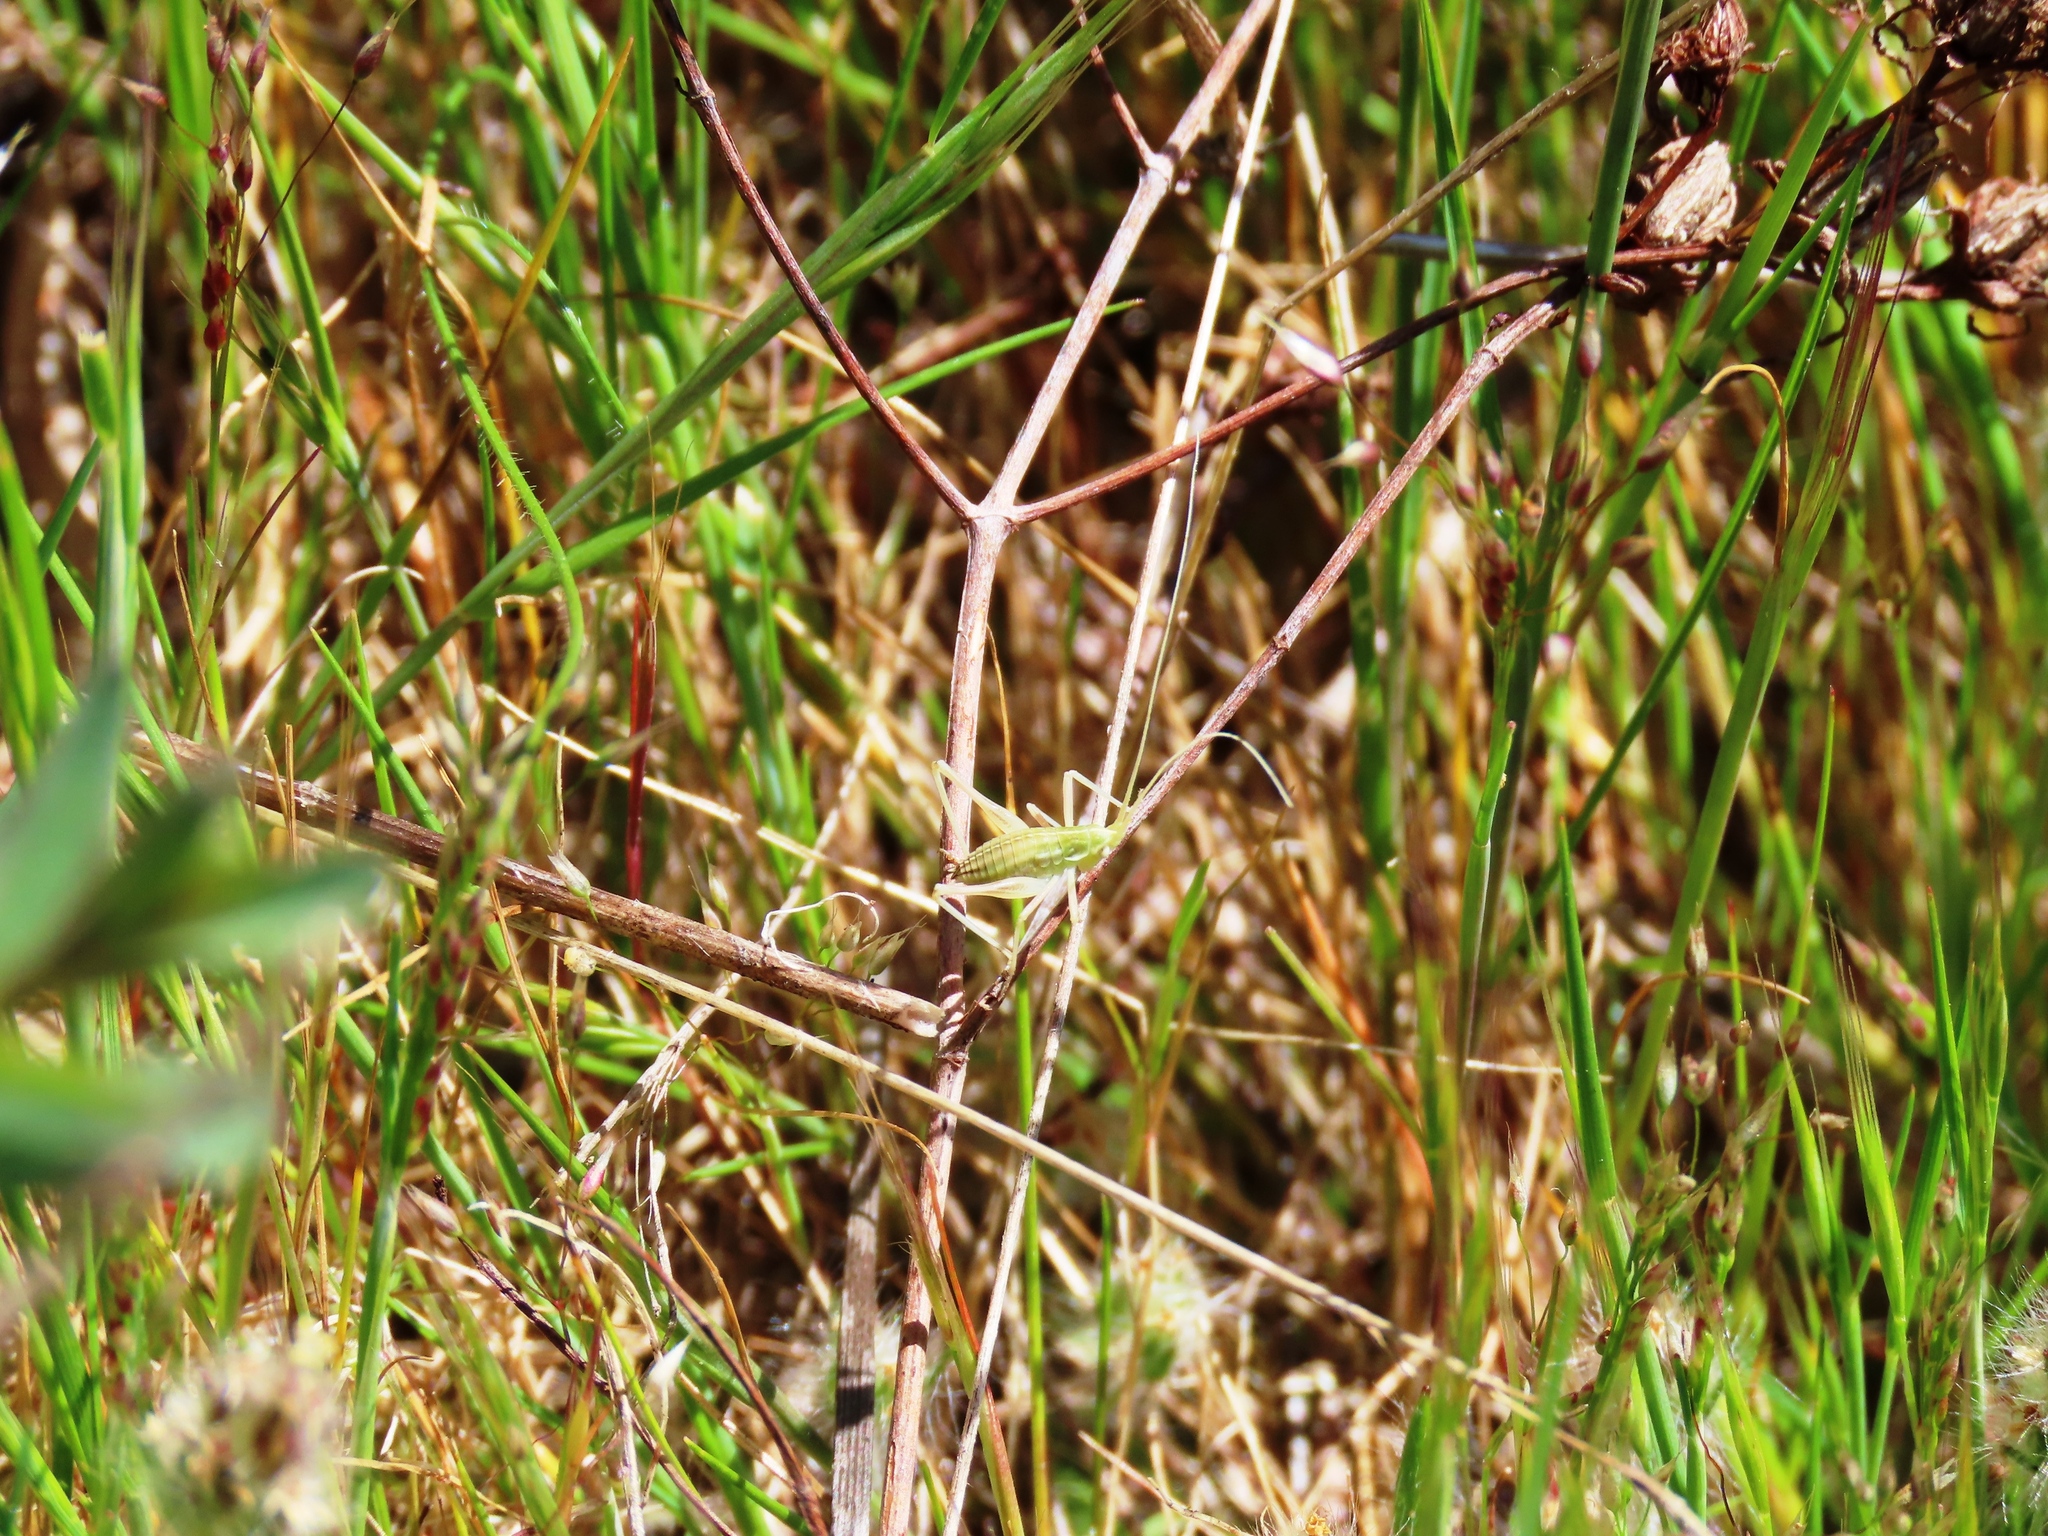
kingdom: Animalia
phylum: Arthropoda
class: Insecta
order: Orthoptera
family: Tettigoniidae
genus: Tinzeda
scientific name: Tinzeda albosignata
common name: Stout tinzeda
